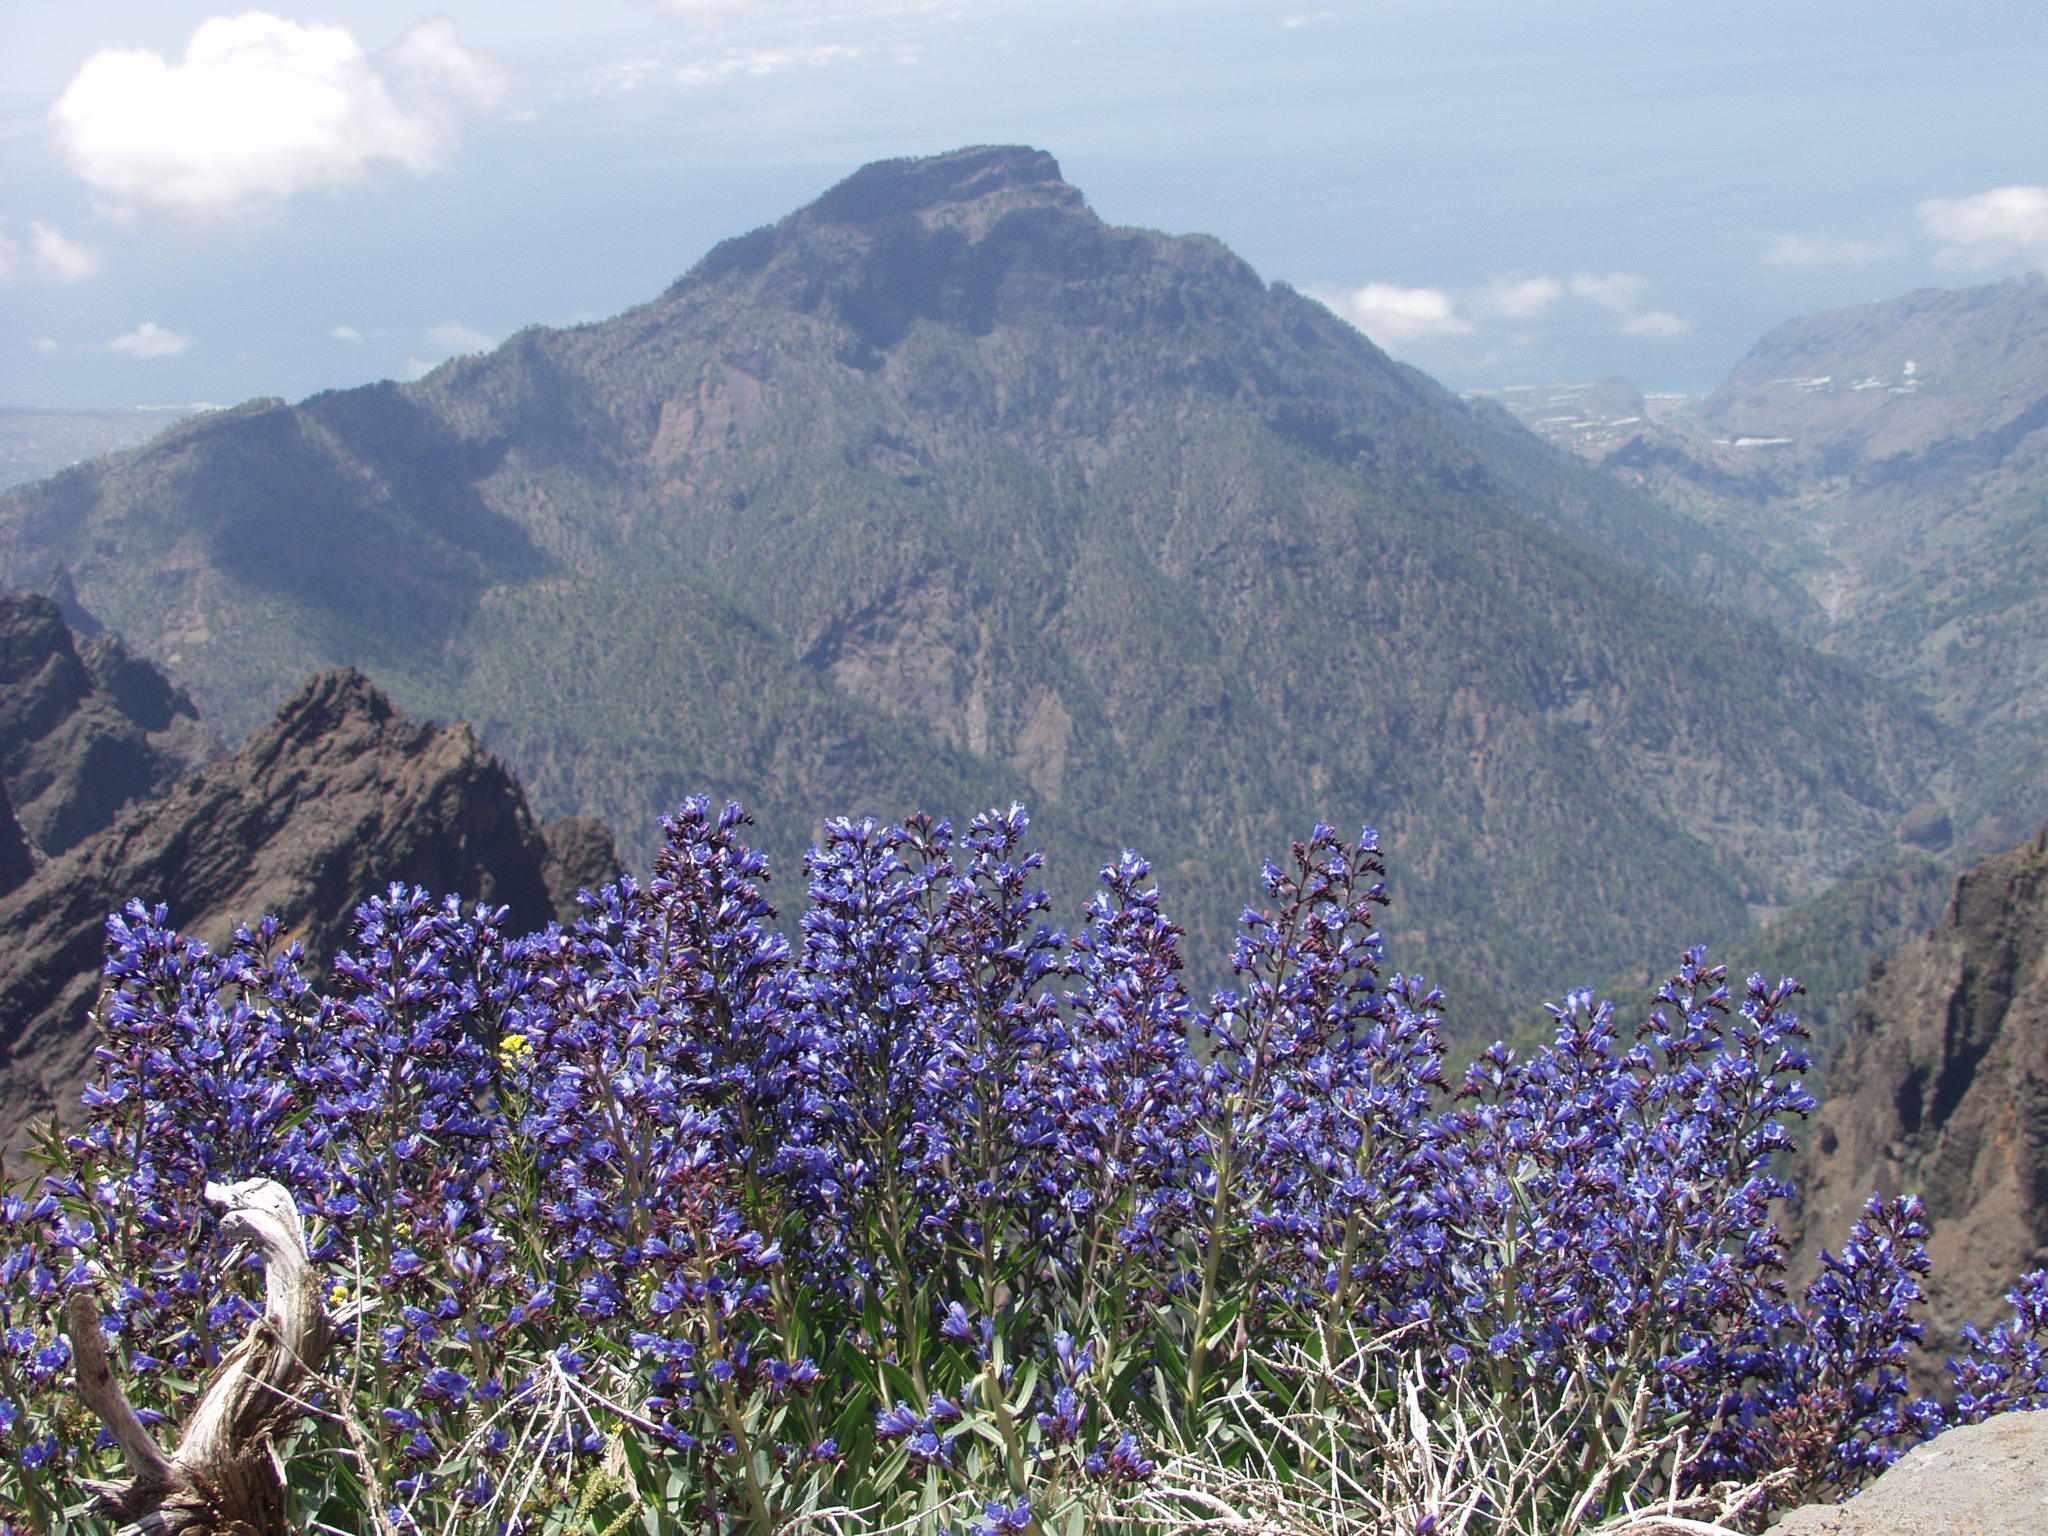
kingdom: Plantae
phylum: Tracheophyta
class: Magnoliopsida
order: Boraginales
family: Boraginaceae
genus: Echium
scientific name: Echium thyrsiflorum
